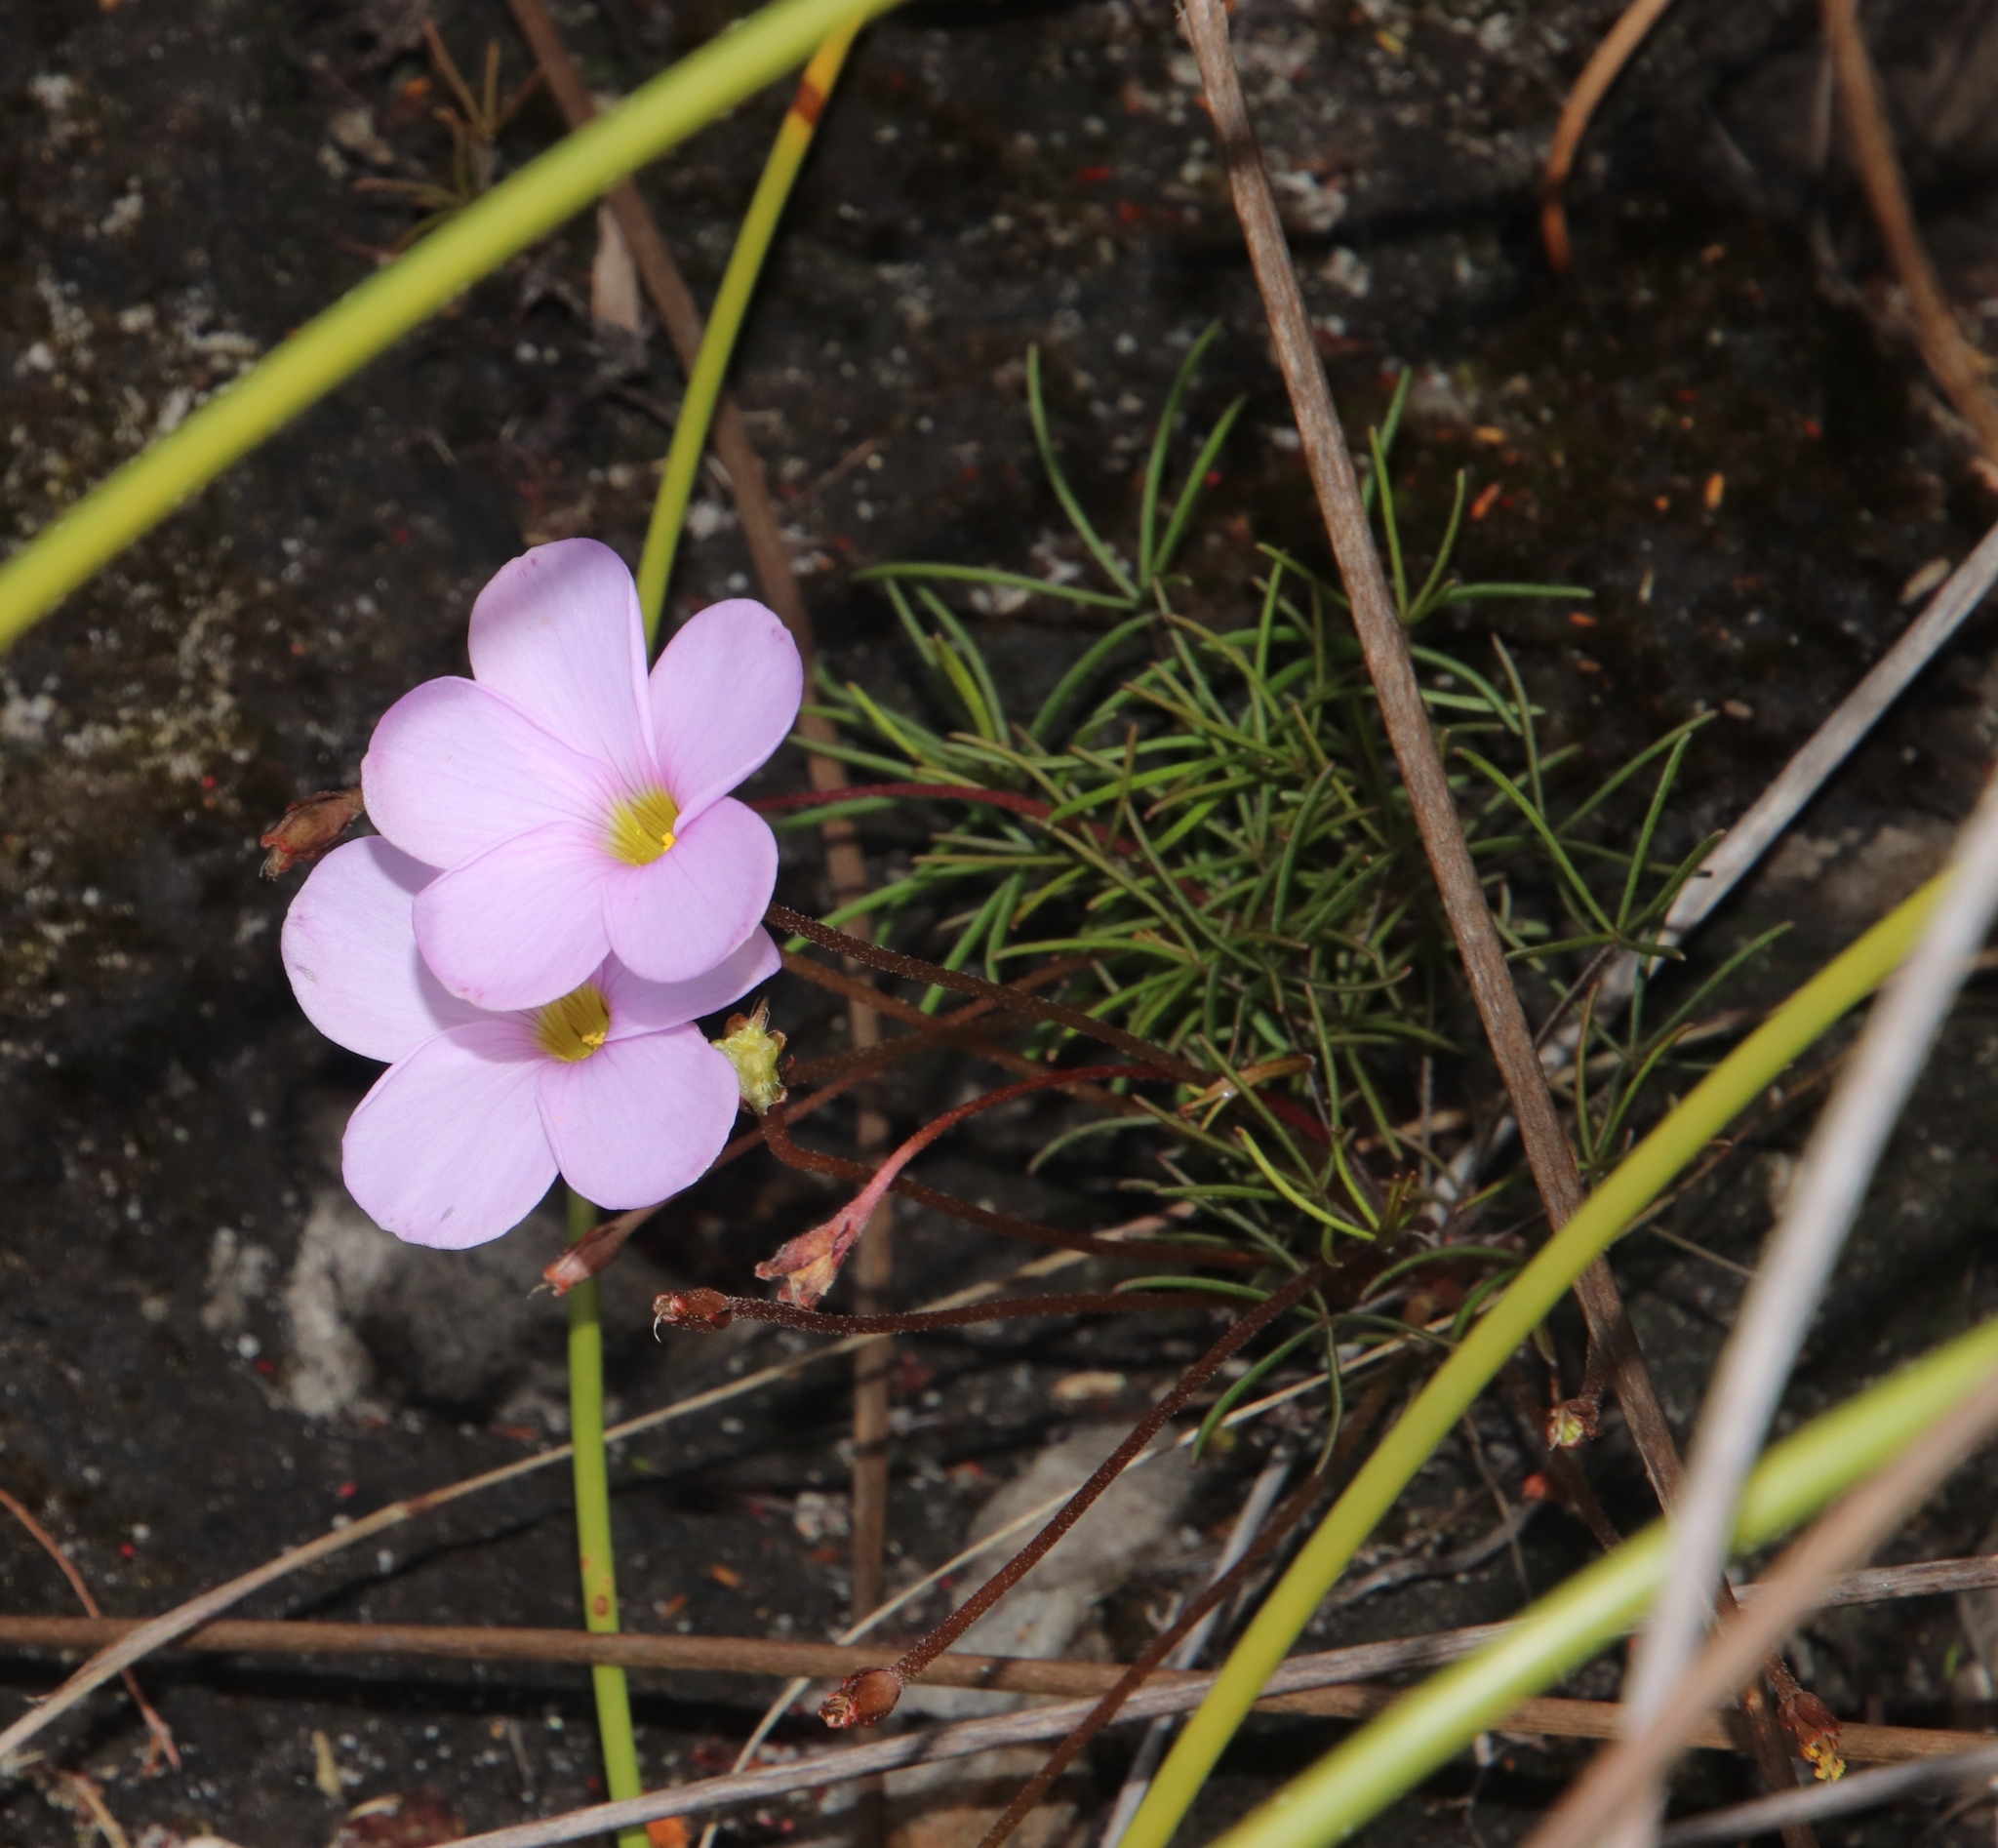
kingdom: Plantae
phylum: Tracheophyta
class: Magnoliopsida
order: Oxalidales
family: Oxalidaceae
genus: Oxalis
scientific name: Oxalis polyphylla
